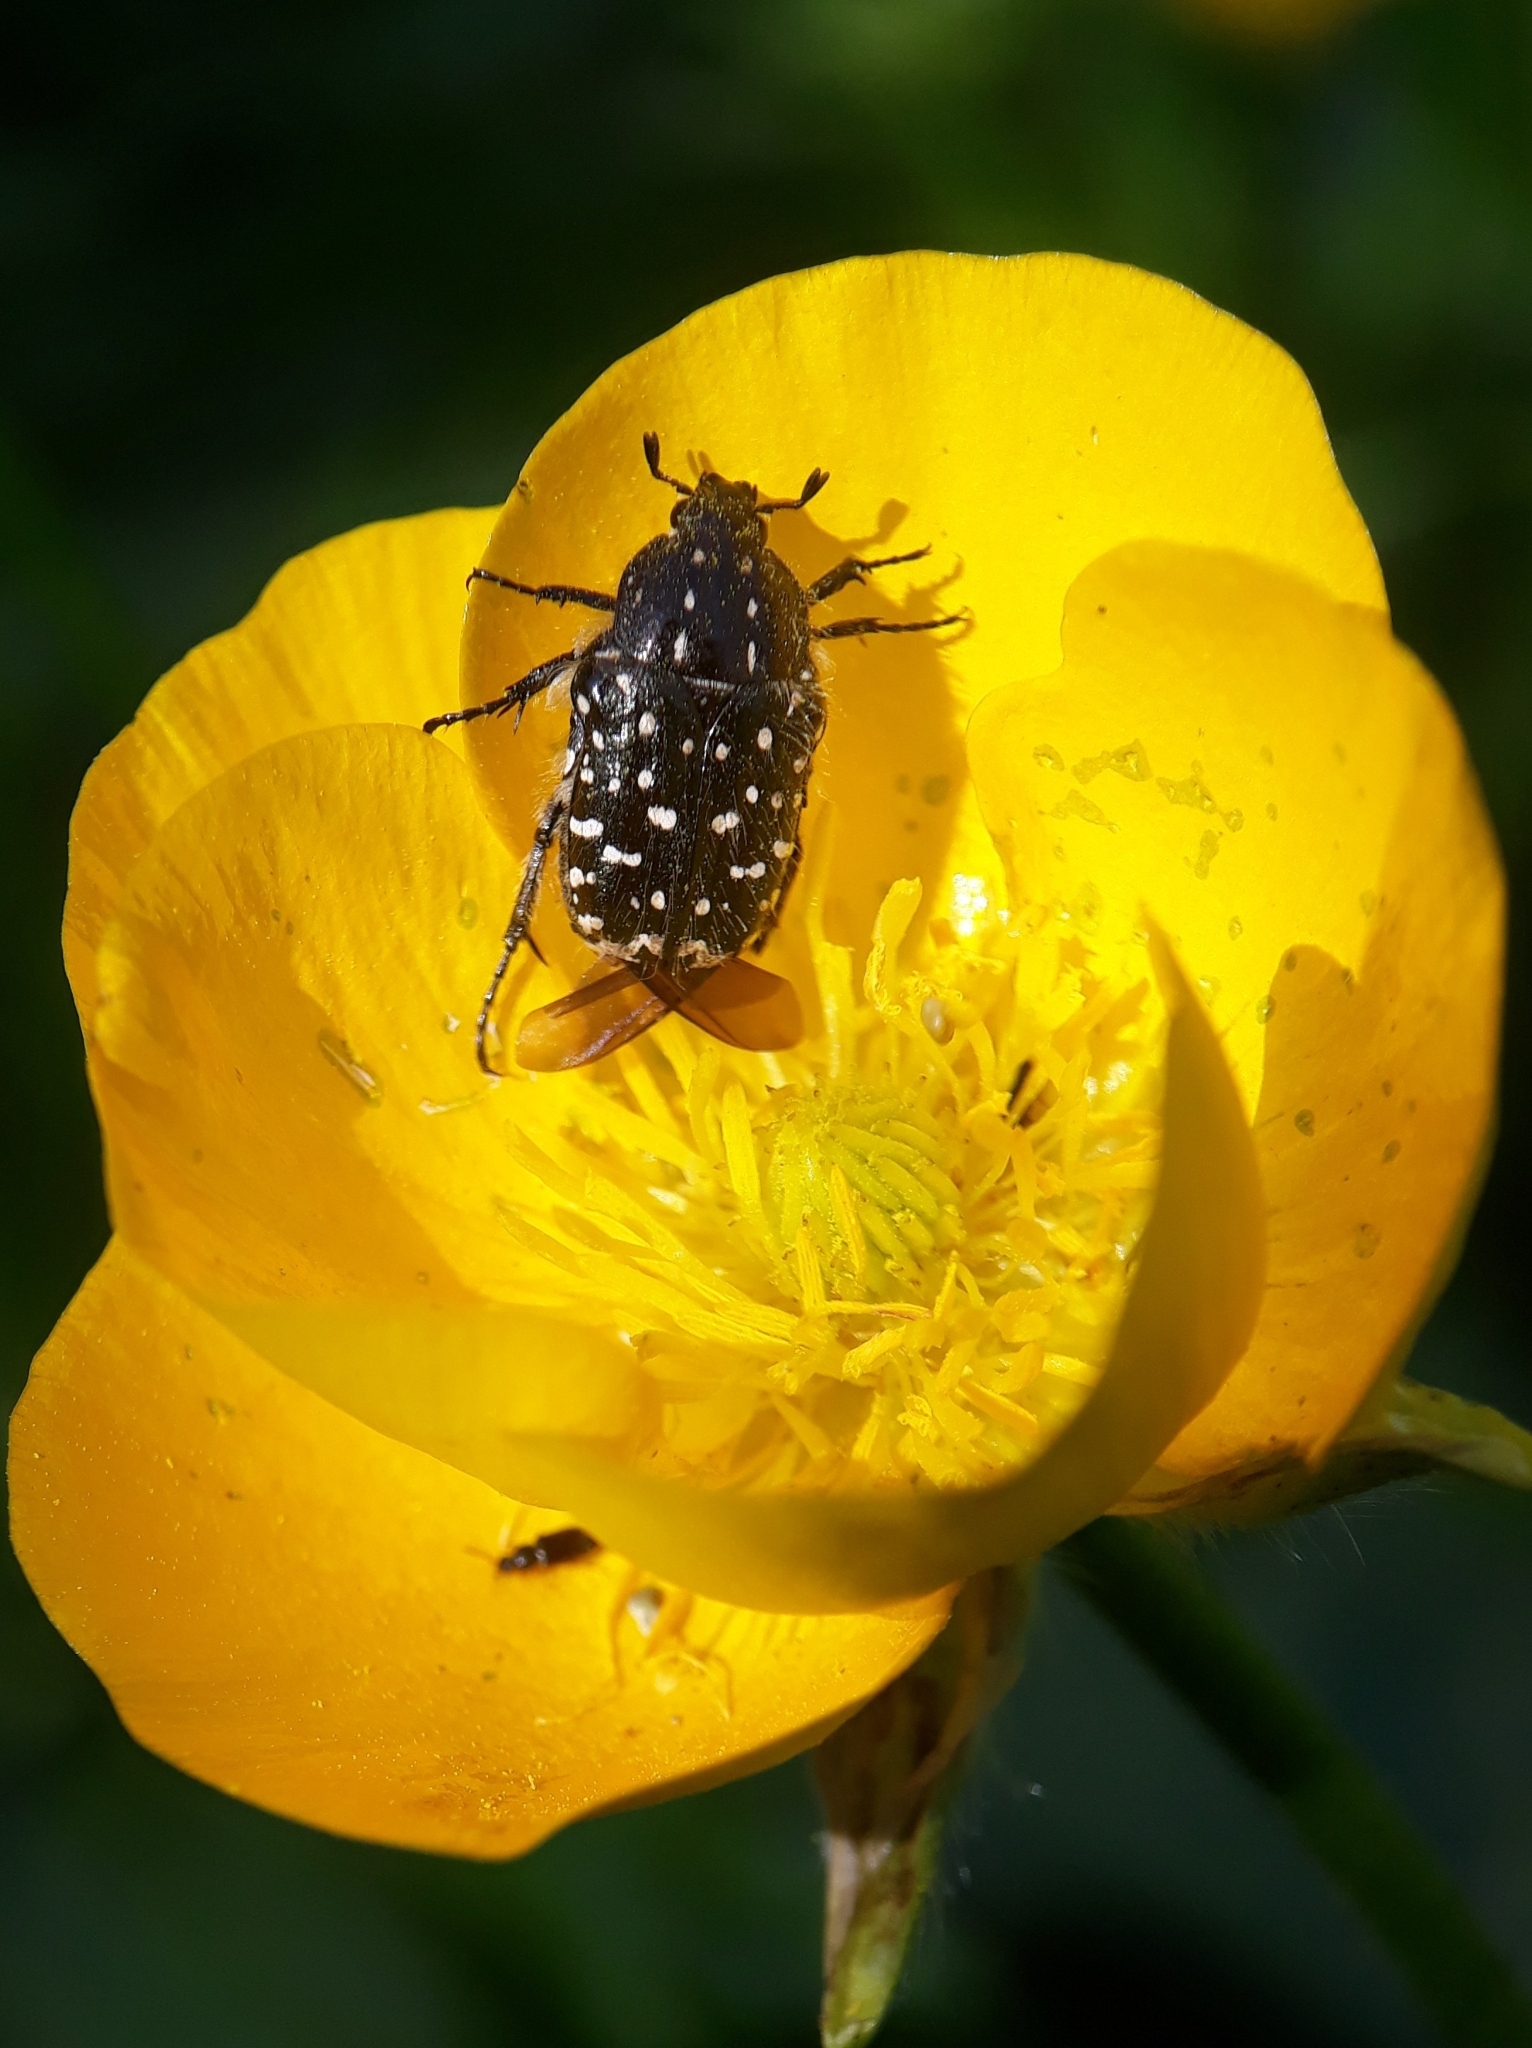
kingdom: Animalia
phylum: Arthropoda
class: Insecta
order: Coleoptera
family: Scarabaeidae
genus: Oxythyrea
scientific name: Oxythyrea funesta
